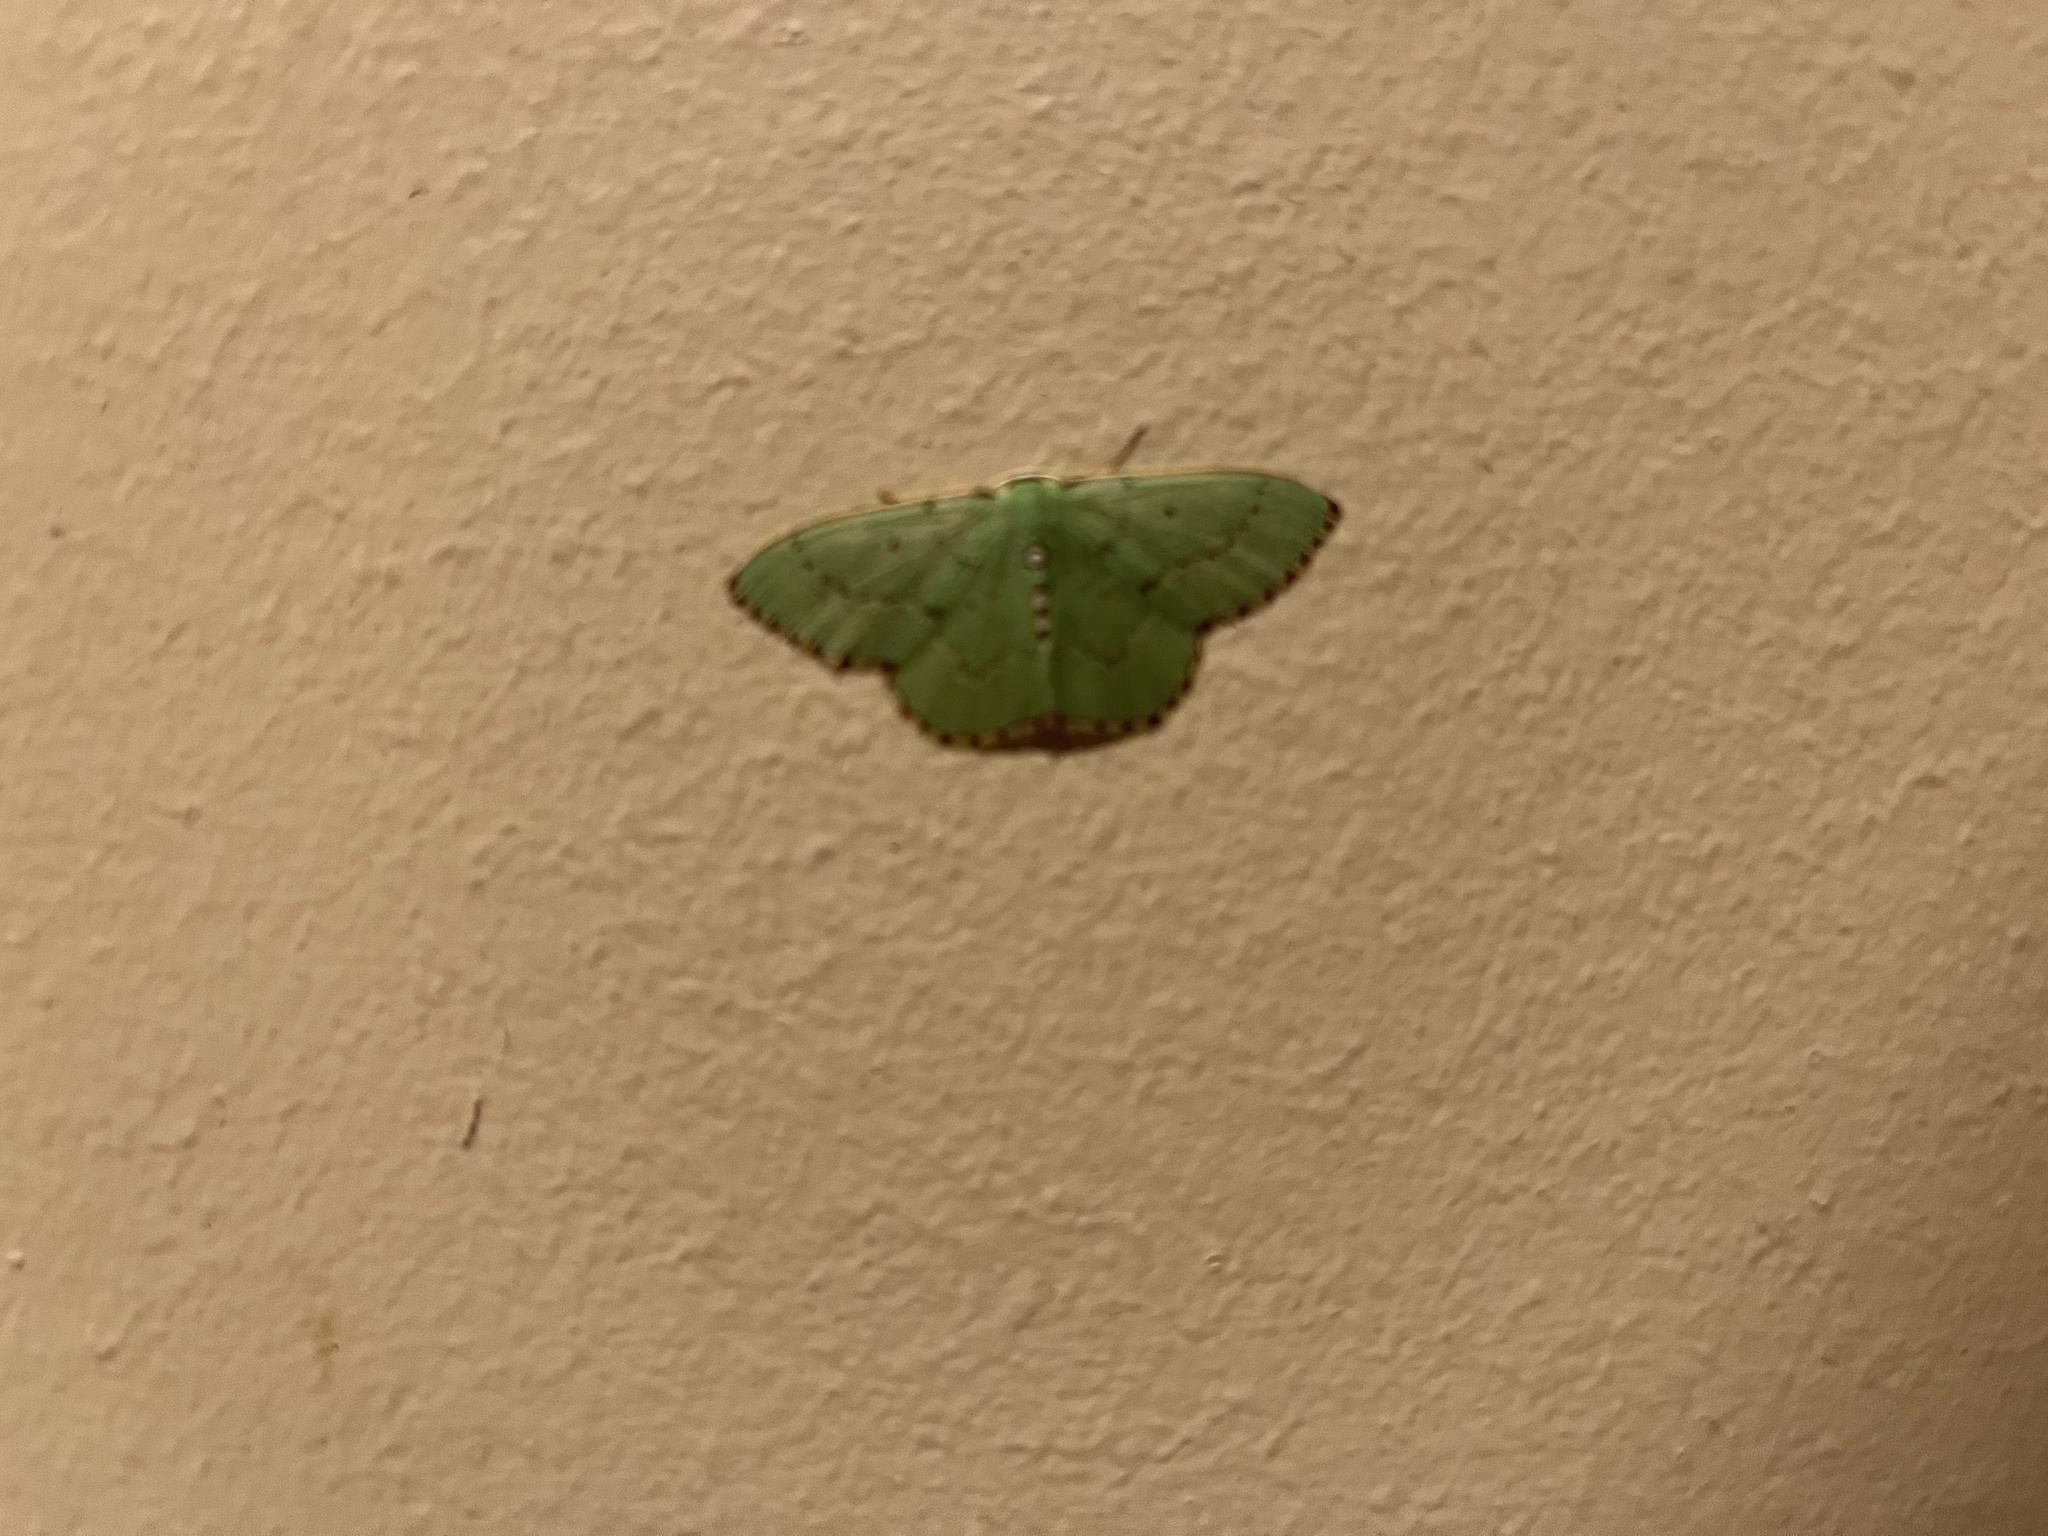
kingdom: Animalia
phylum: Arthropoda
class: Insecta
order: Lepidoptera
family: Geometridae
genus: Nemoria
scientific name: Nemoria lixaria
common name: Red-bordered emerald
